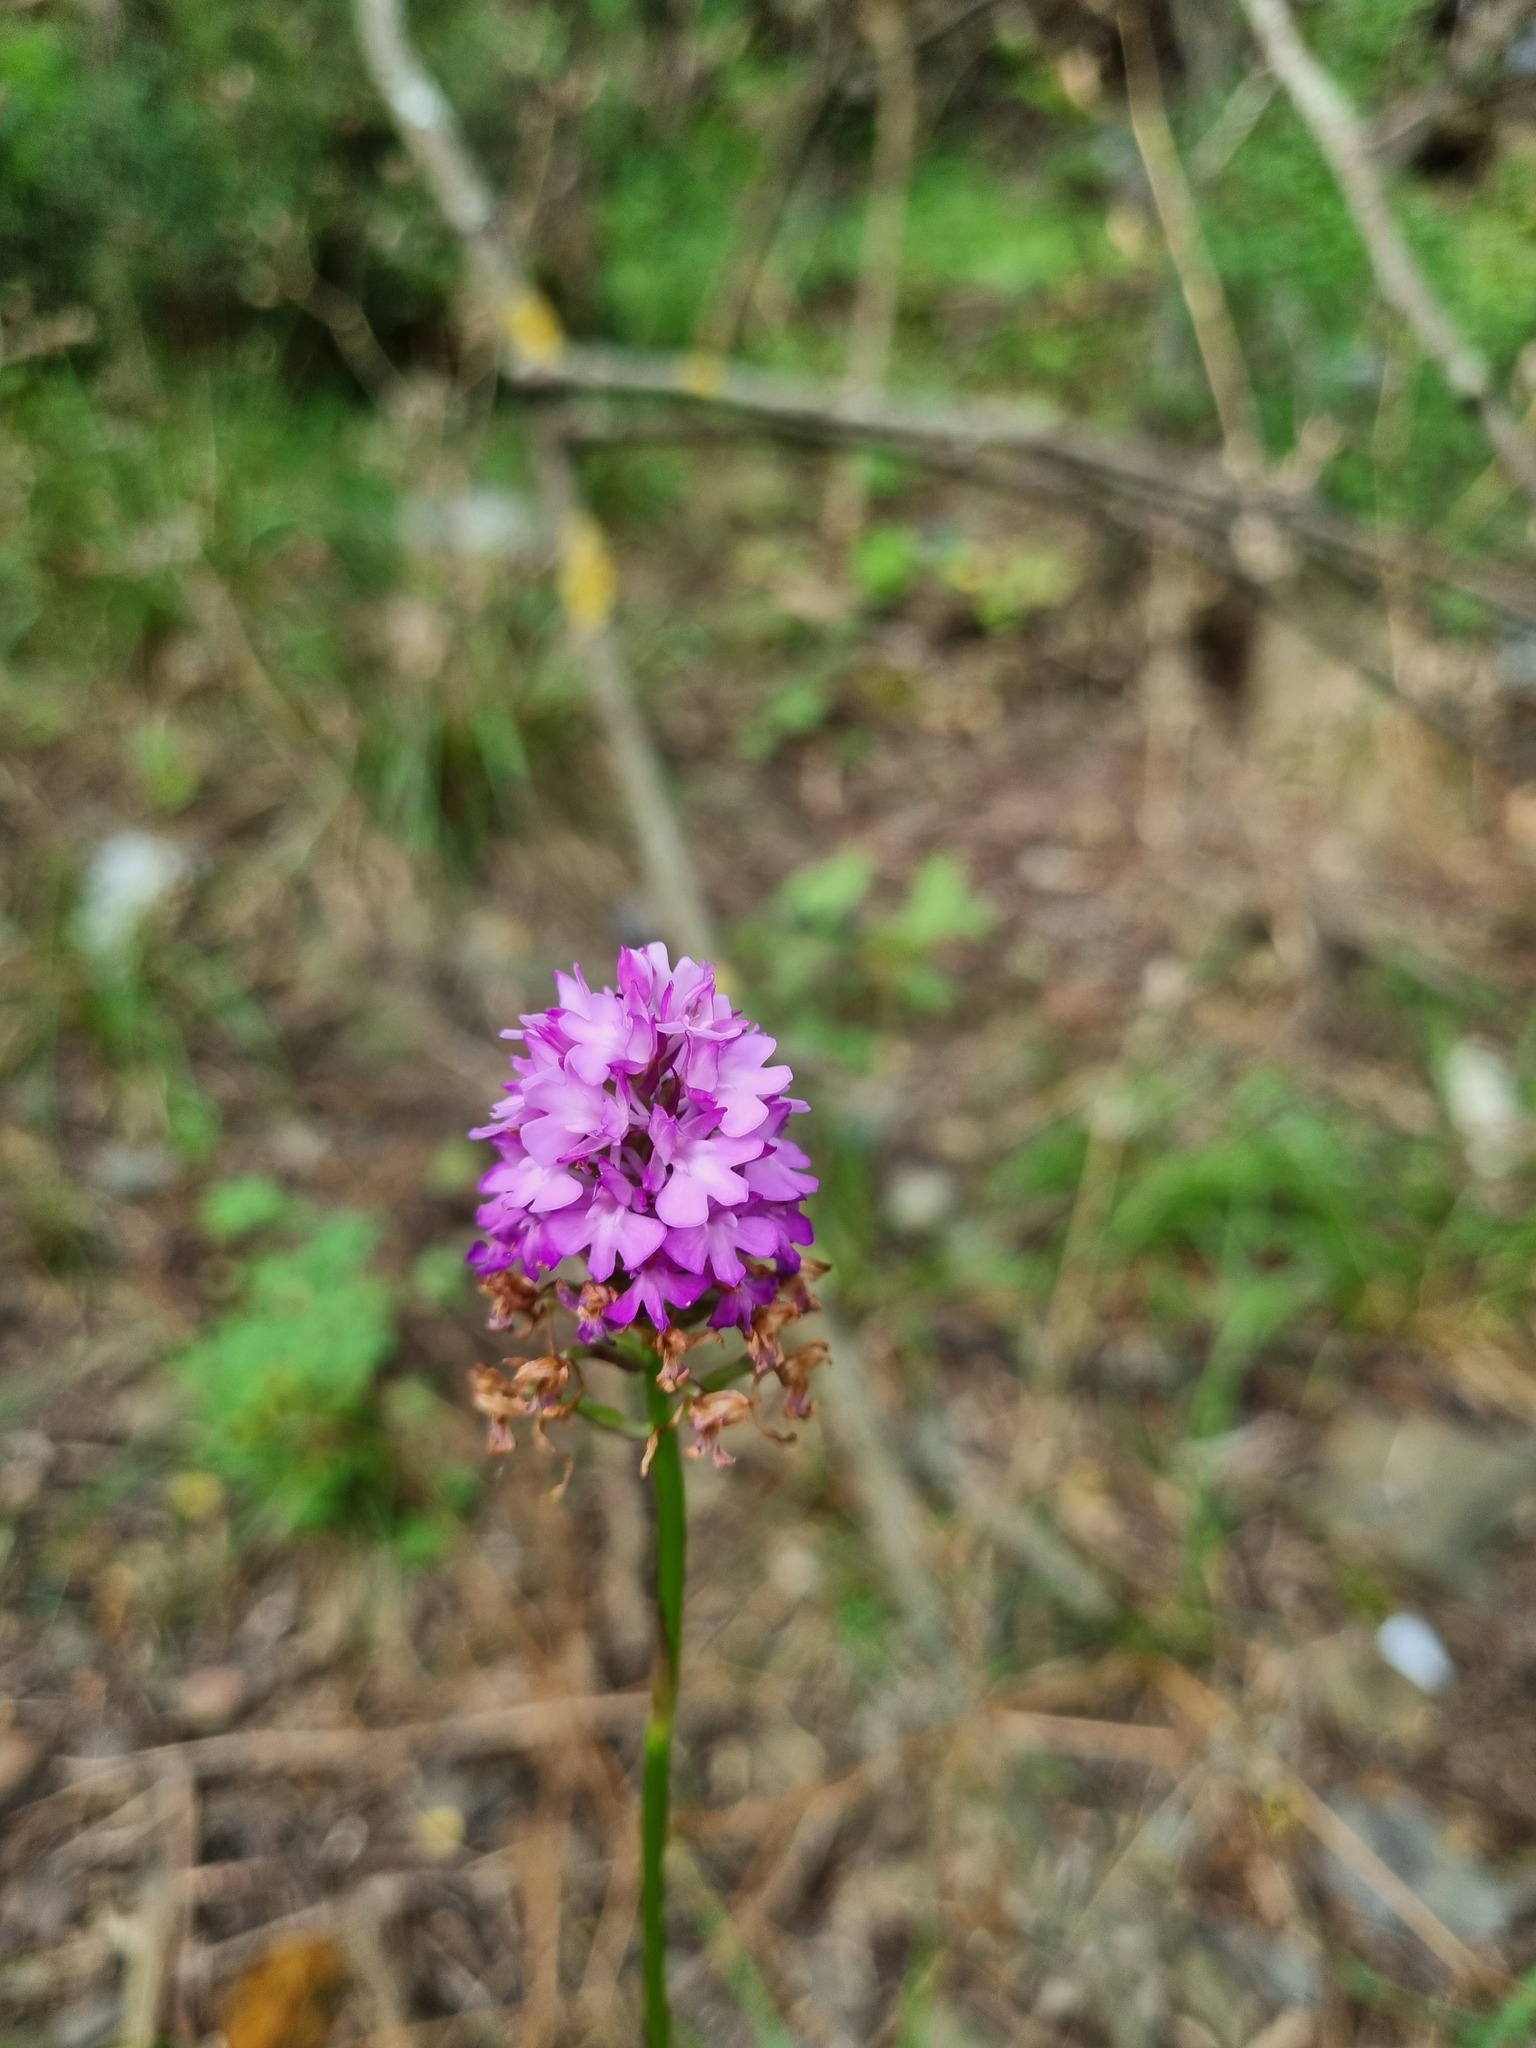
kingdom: Plantae
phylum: Tracheophyta
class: Liliopsida
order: Asparagales
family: Orchidaceae
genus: Anacamptis
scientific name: Anacamptis pyramidalis
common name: Pyramidal orchid
